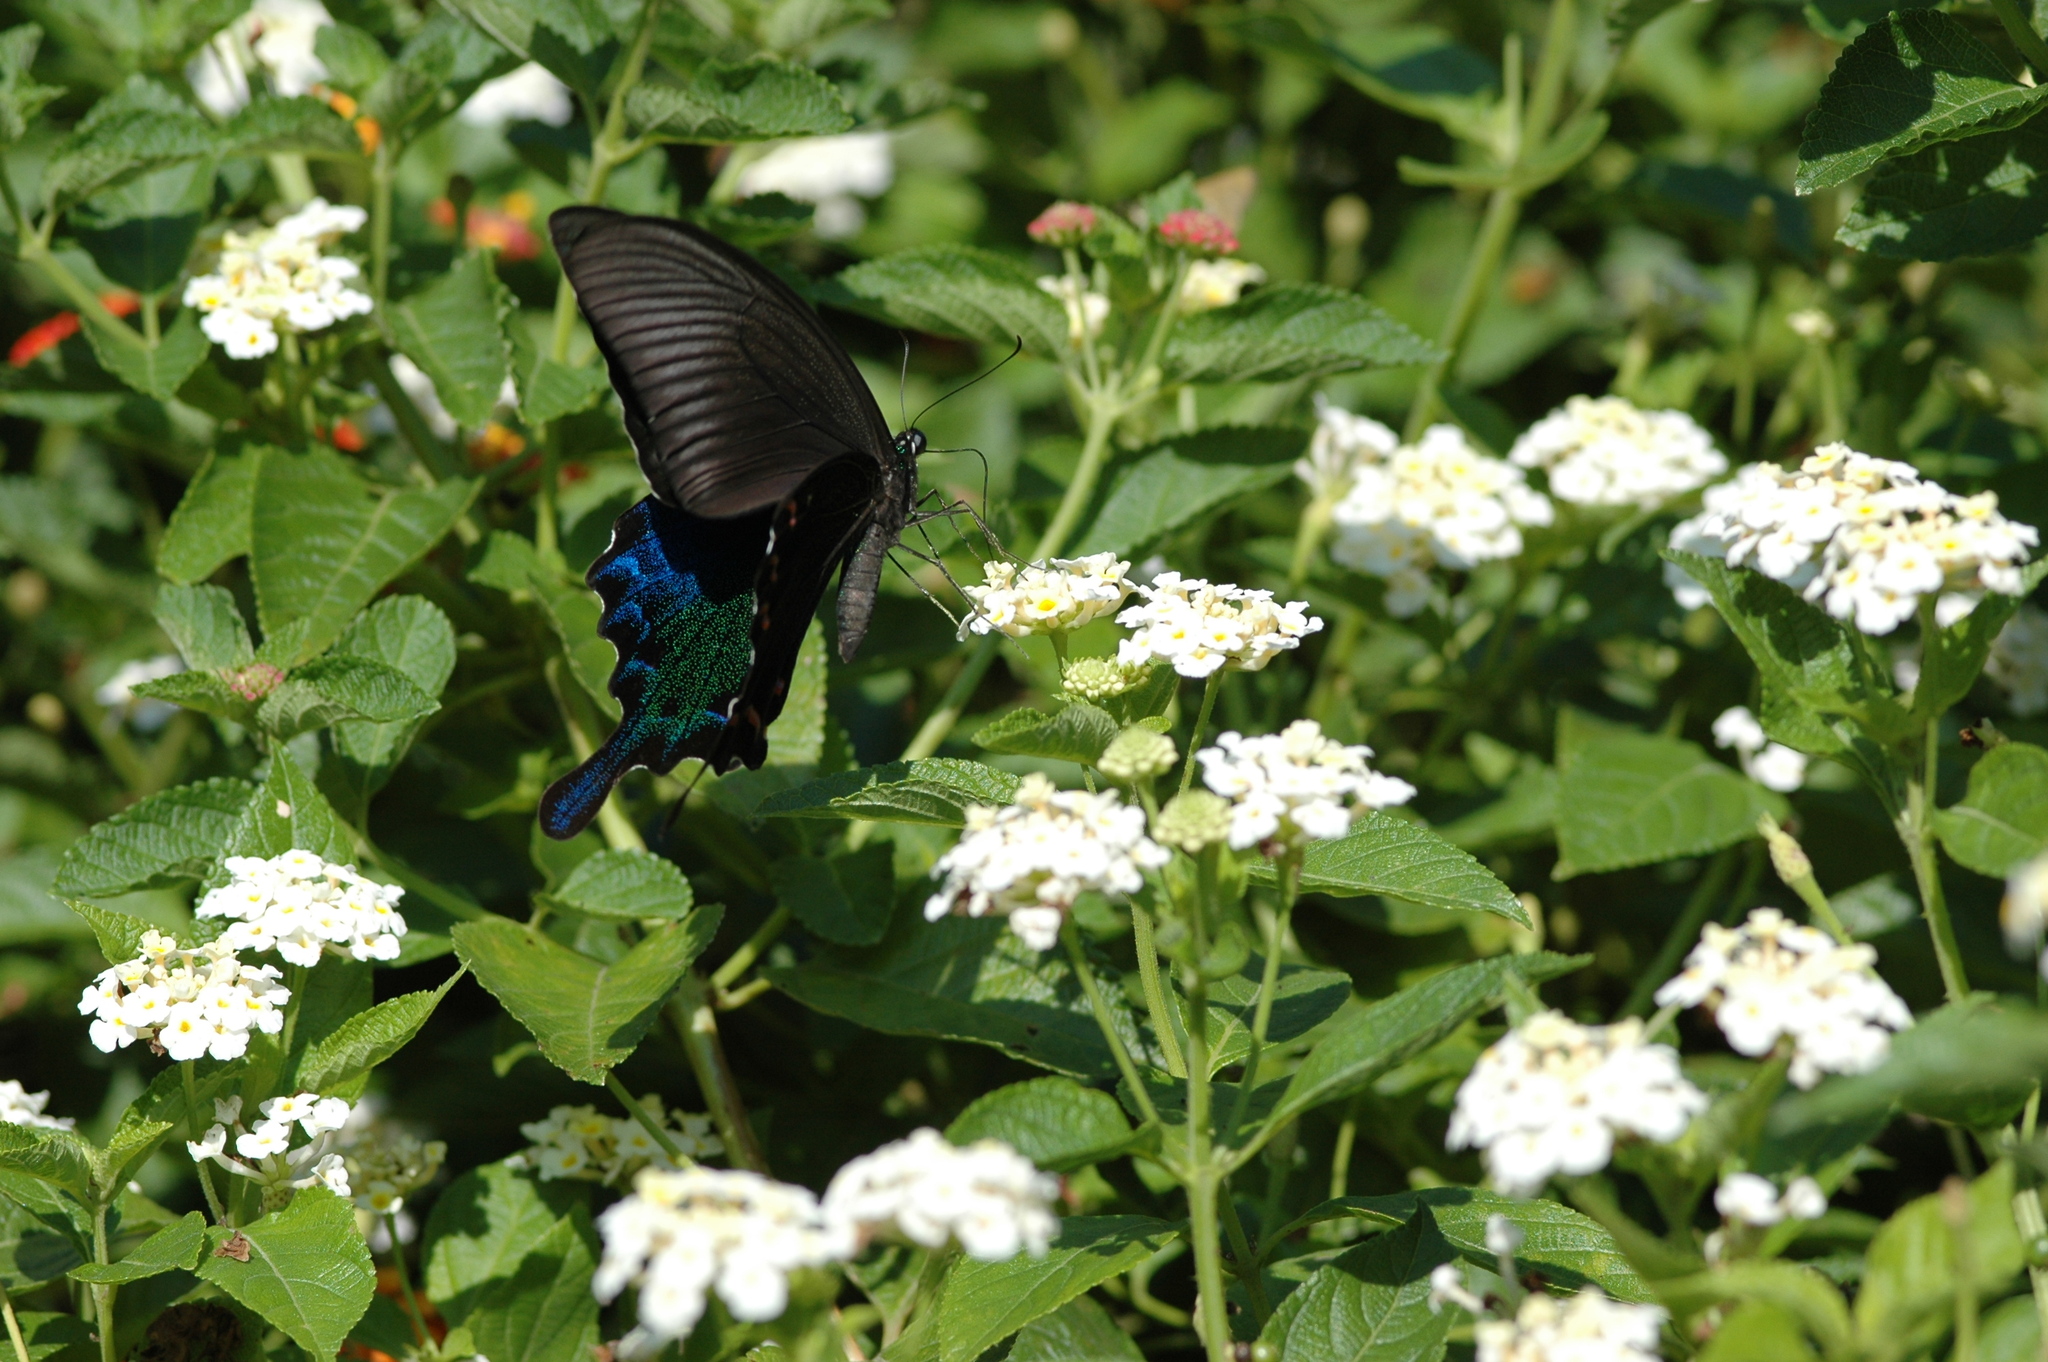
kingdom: Animalia
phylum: Arthropoda
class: Insecta
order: Lepidoptera
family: Papilionidae
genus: Papilio
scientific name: Papilio bianor
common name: Common peacock
